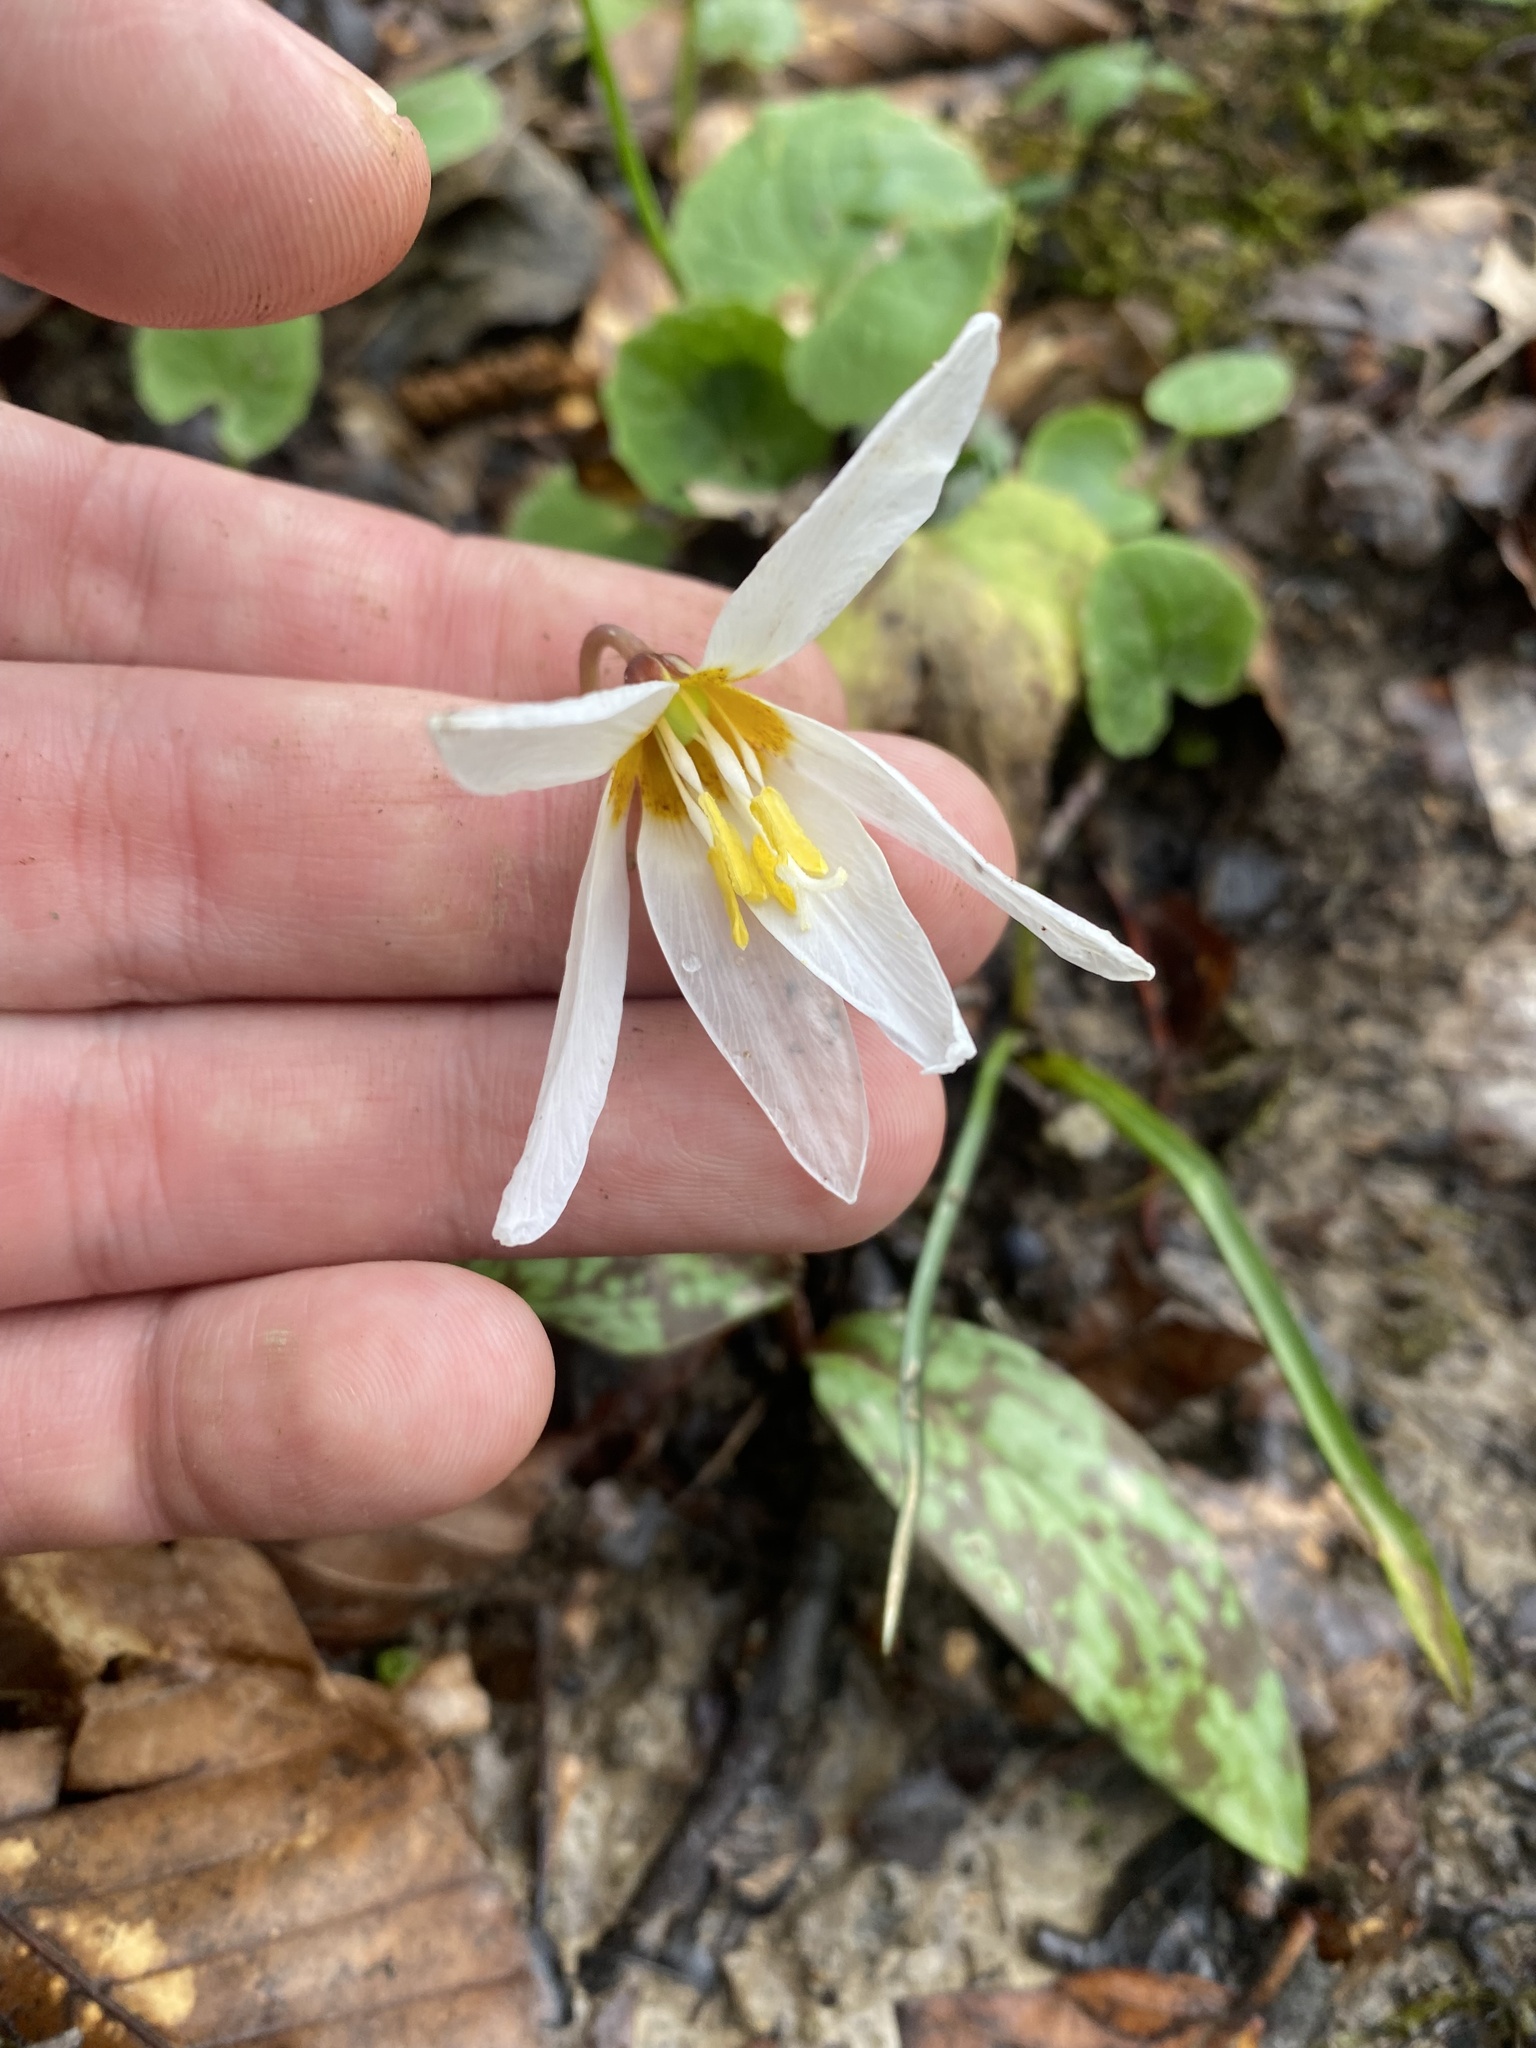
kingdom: Plantae
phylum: Tracheophyta
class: Liliopsida
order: Liliales
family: Liliaceae
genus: Erythronium
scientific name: Erythronium caucasicum
